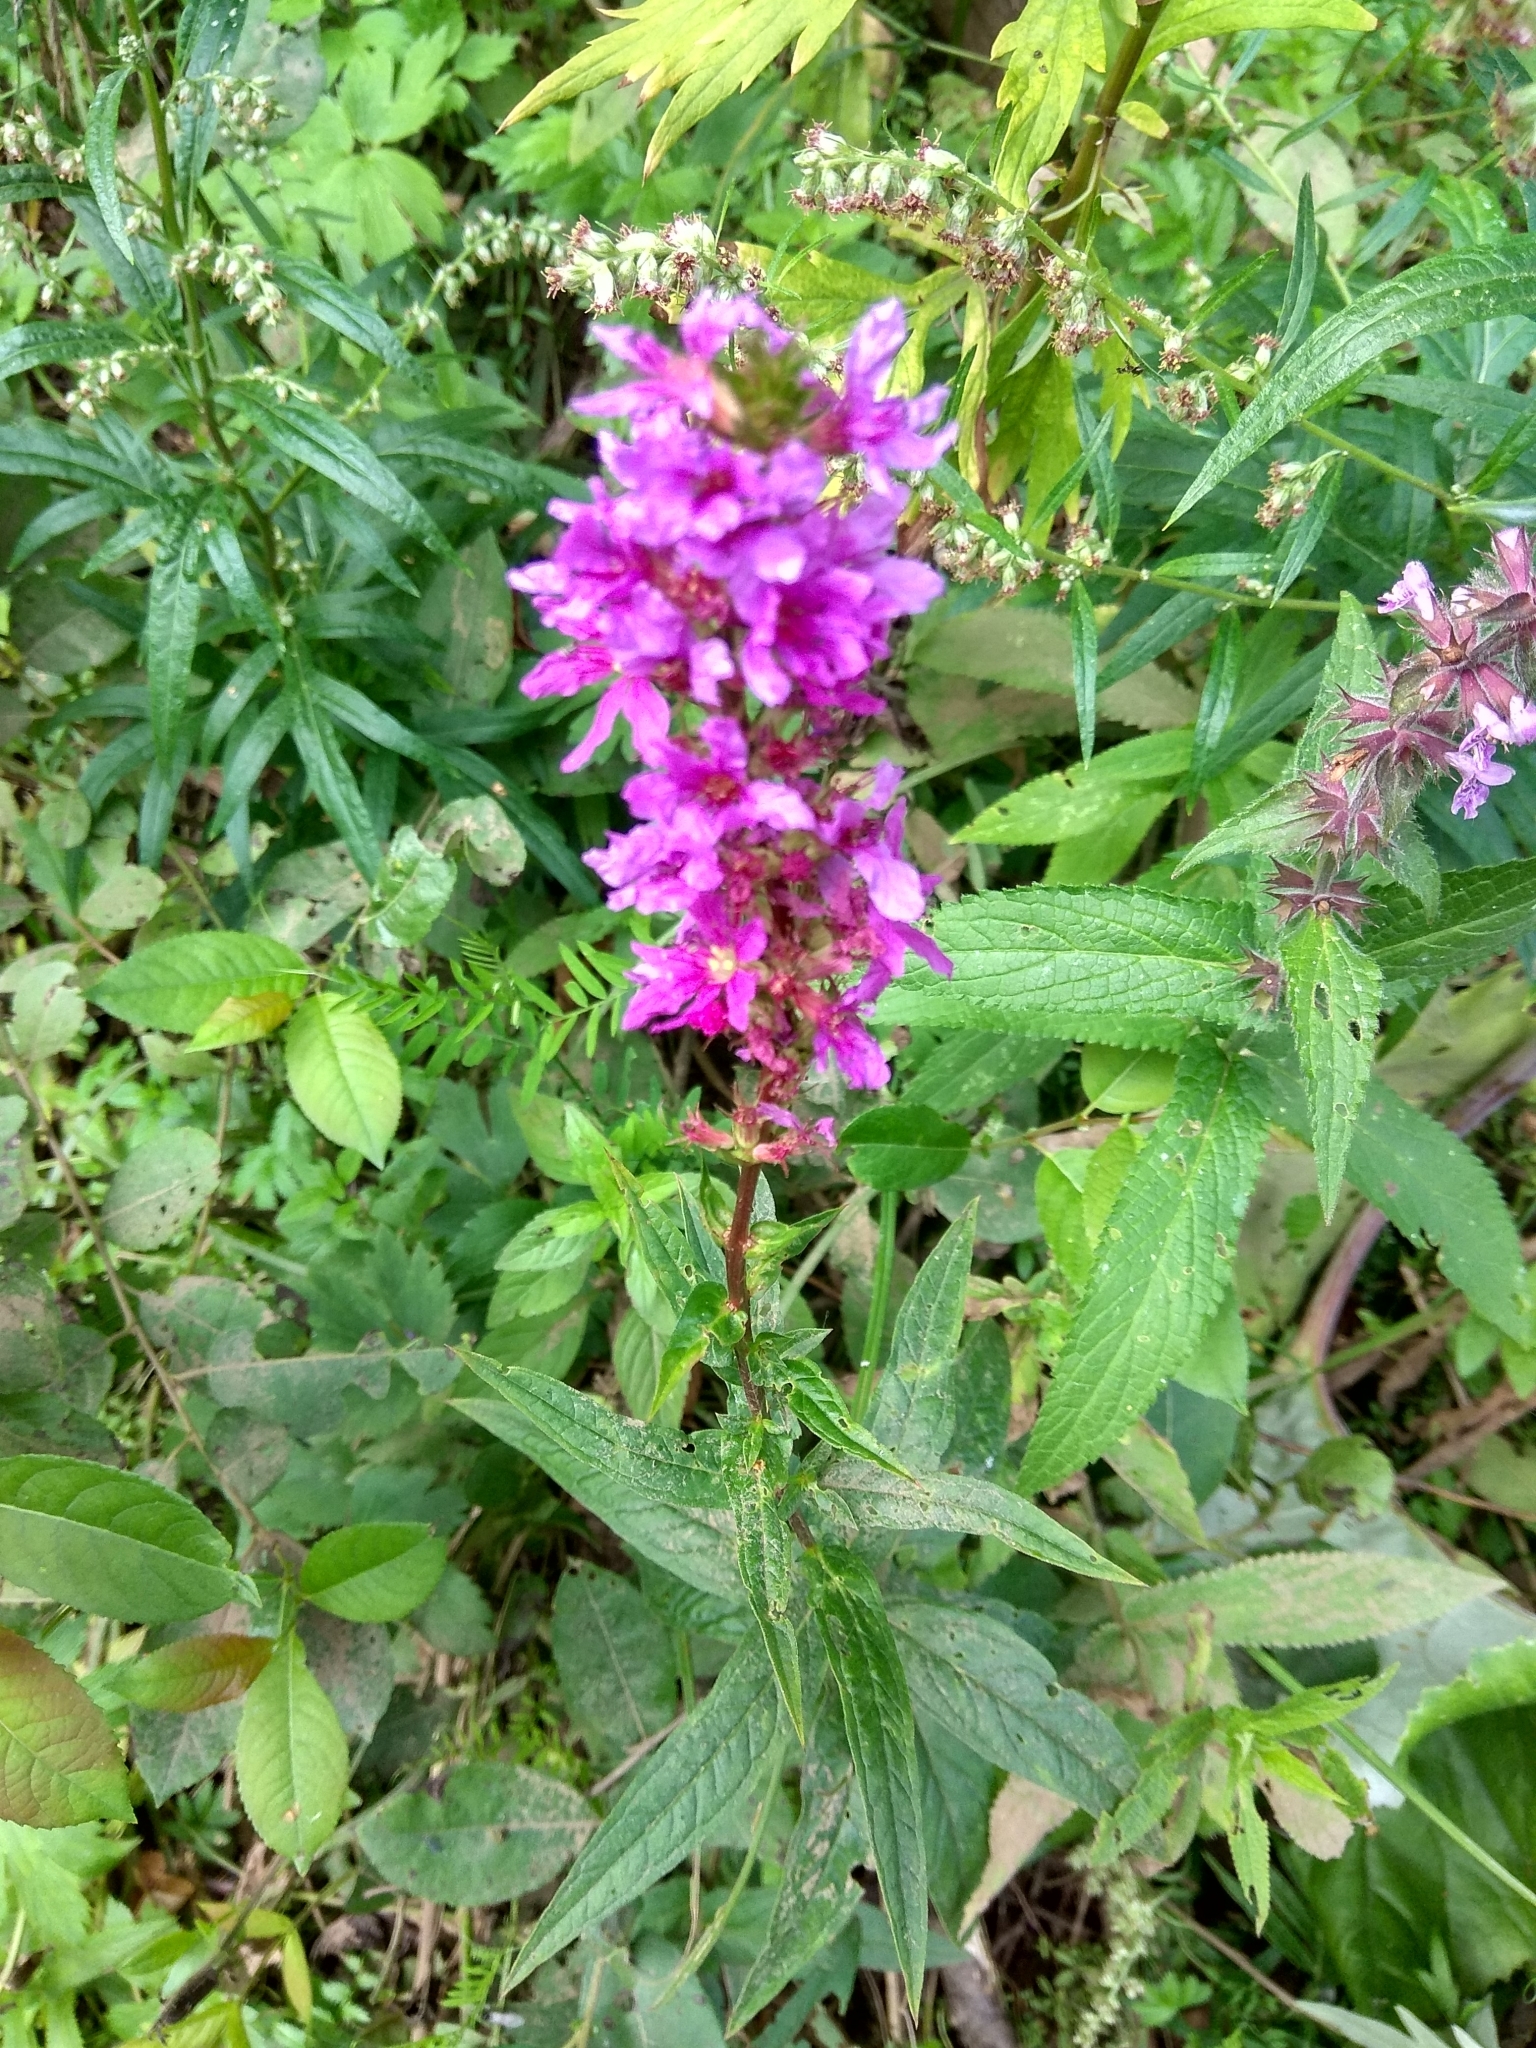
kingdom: Plantae
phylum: Tracheophyta
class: Magnoliopsida
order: Myrtales
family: Lythraceae
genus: Lythrum
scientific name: Lythrum salicaria
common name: Purple loosestrife
